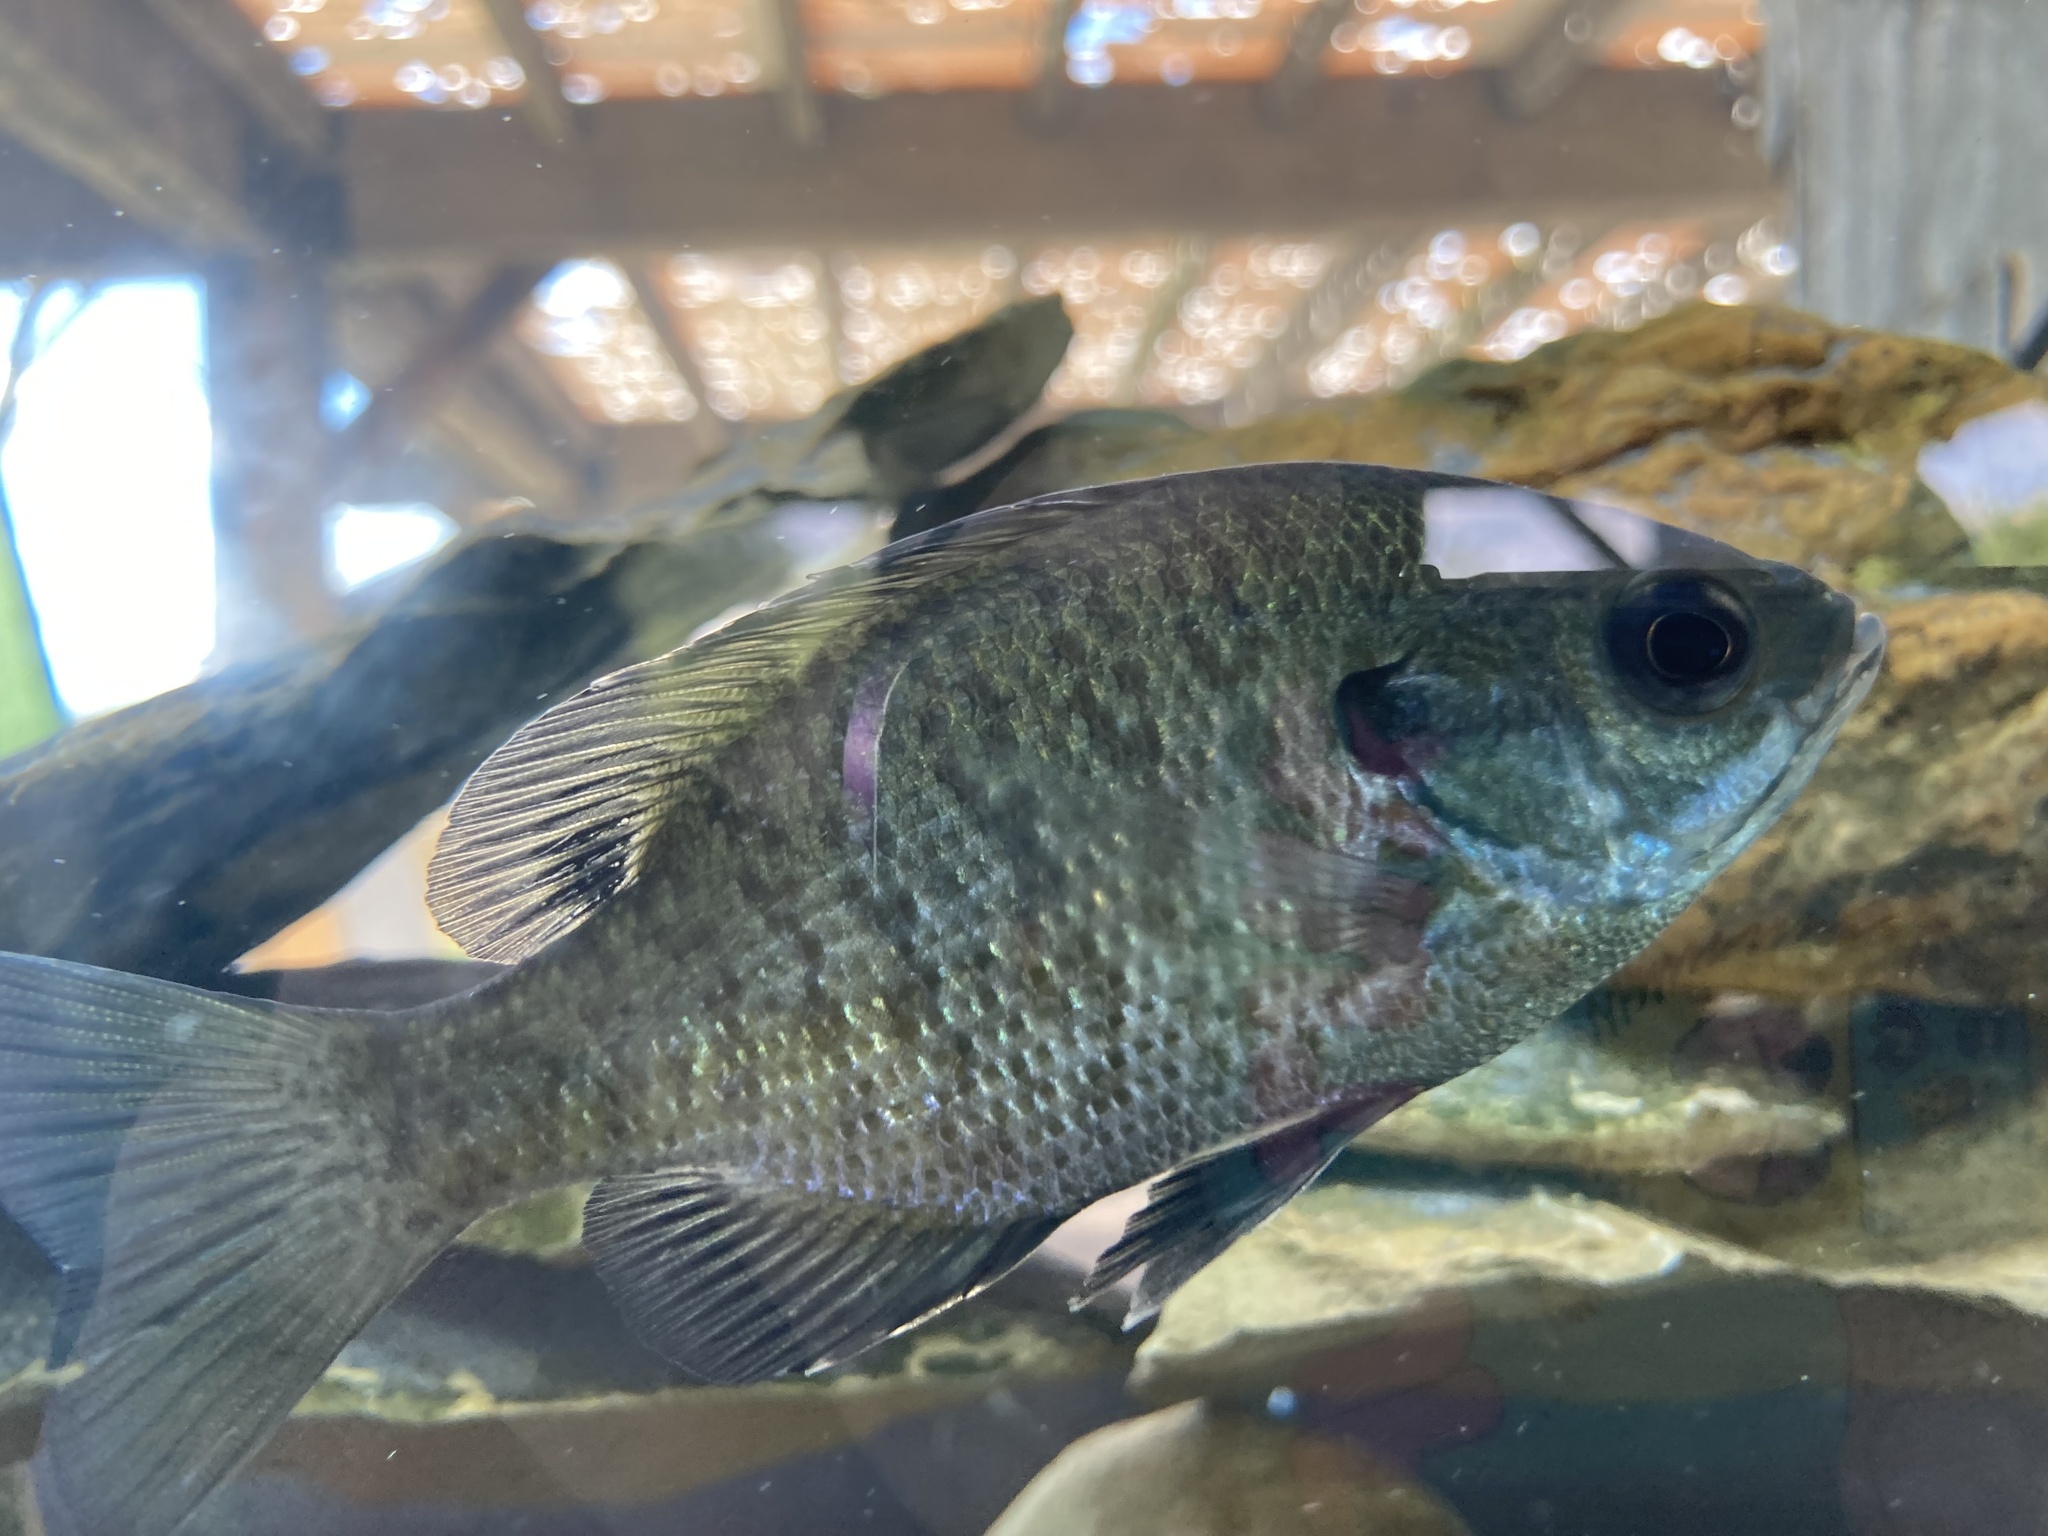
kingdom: Animalia
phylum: Chordata
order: Perciformes
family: Centrarchidae
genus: Lepomis
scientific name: Lepomis macrochirus
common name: Bluegill
